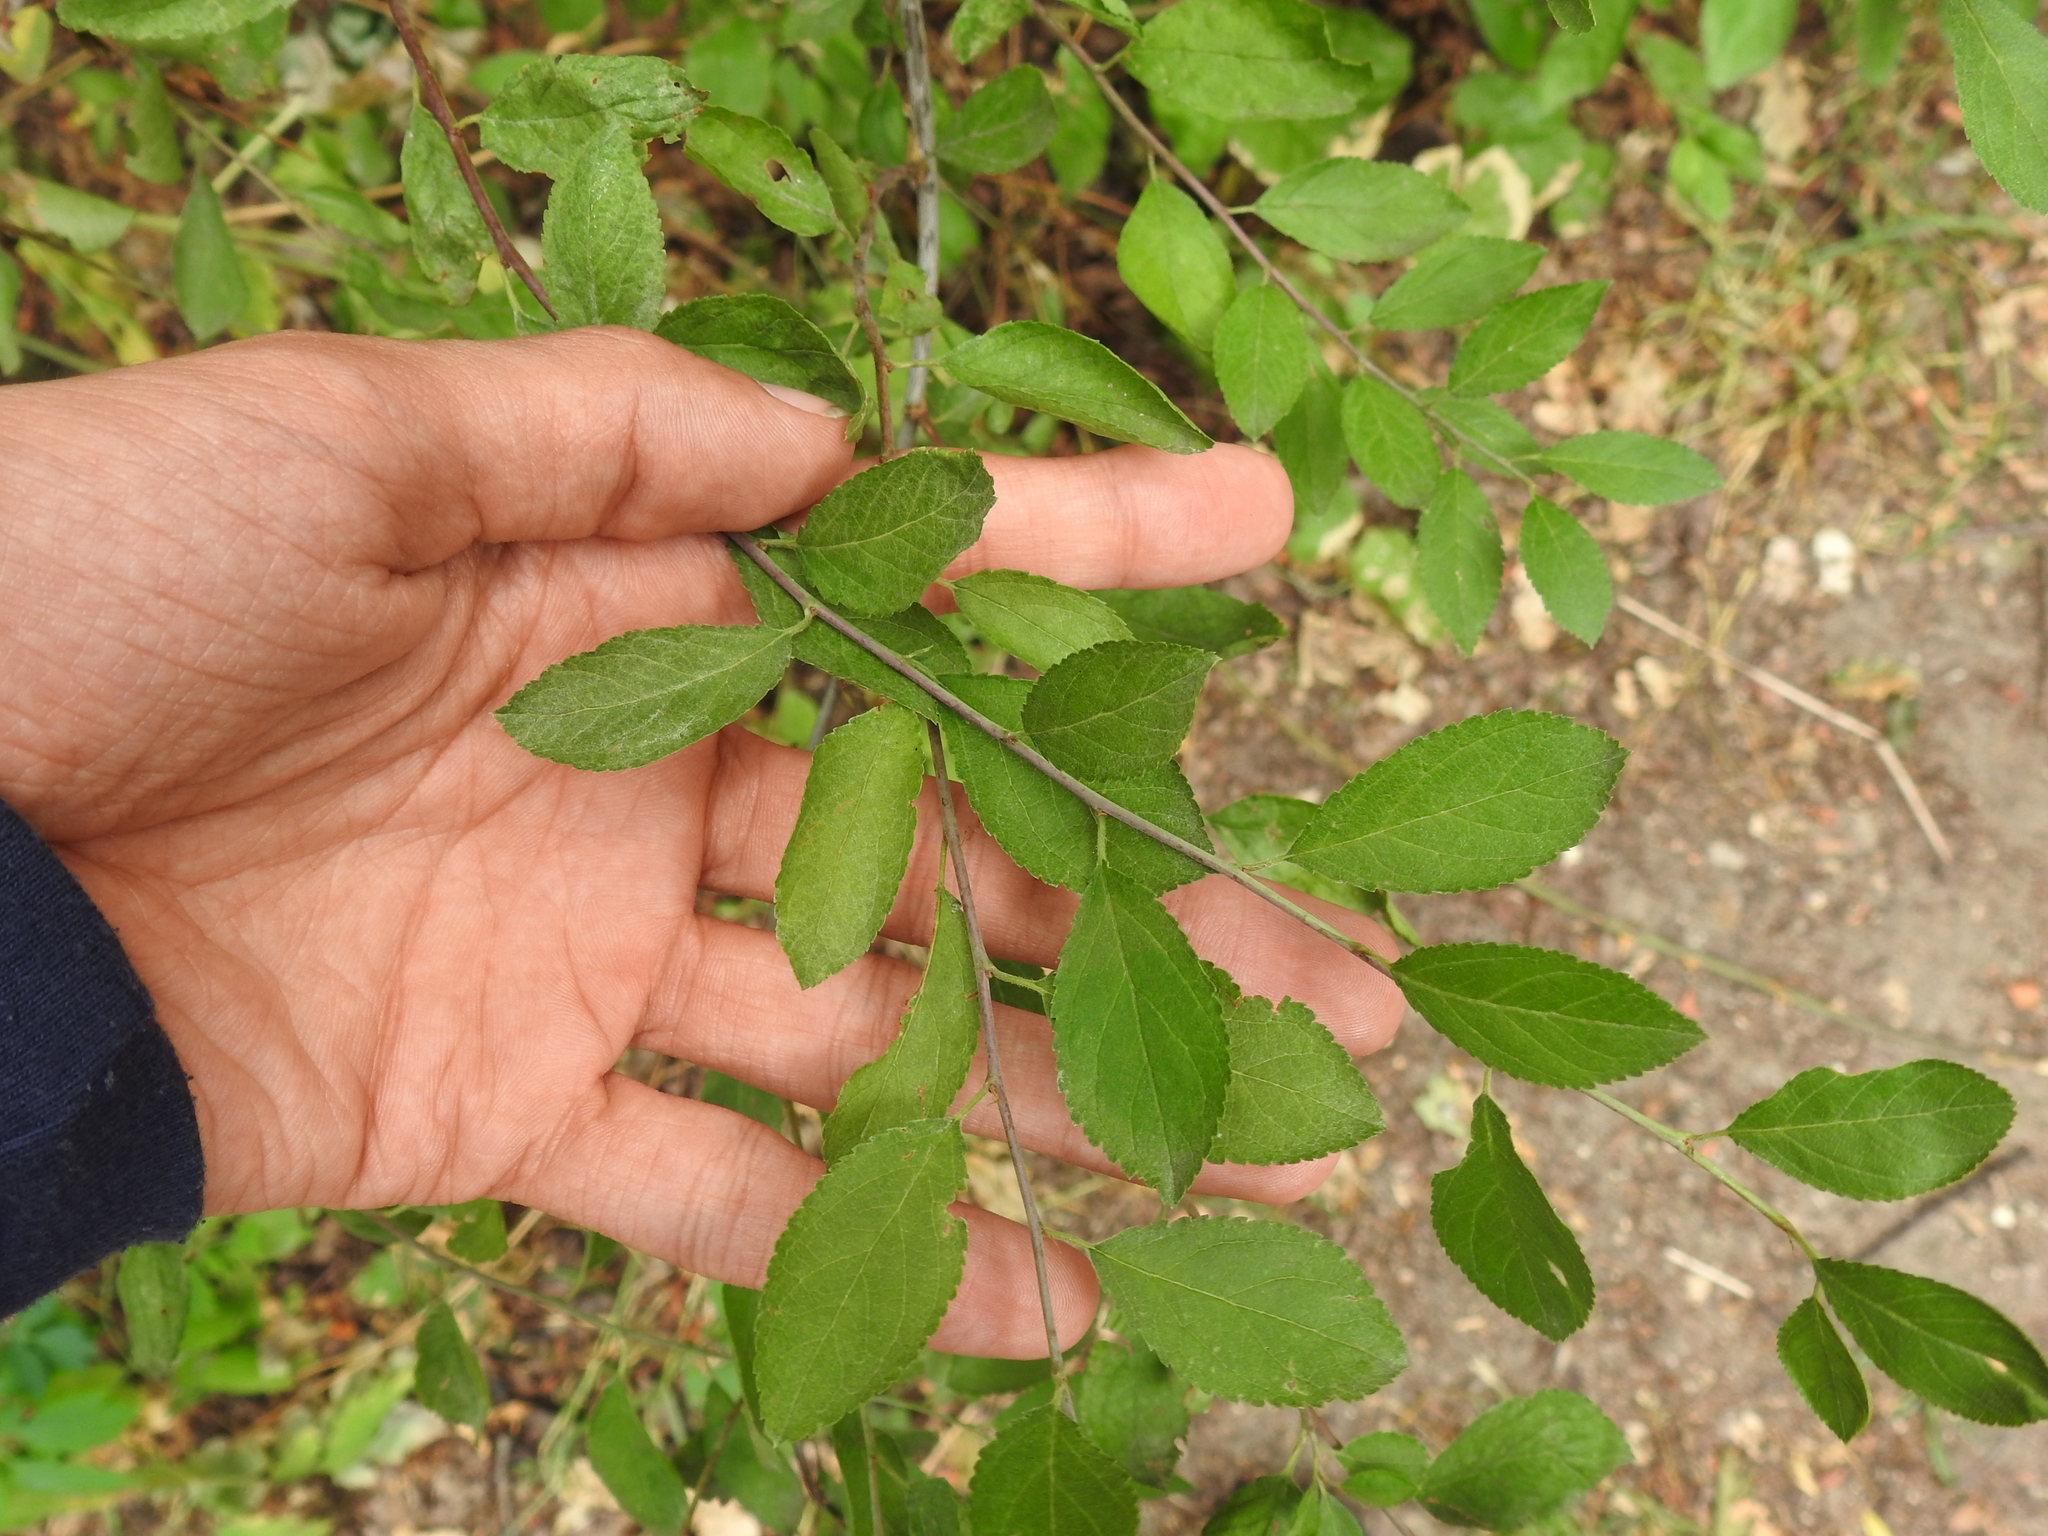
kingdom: Plantae
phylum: Tracheophyta
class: Magnoliopsida
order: Rosales
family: Rosaceae
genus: Prunus
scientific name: Prunus spinosa
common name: Blackthorn
